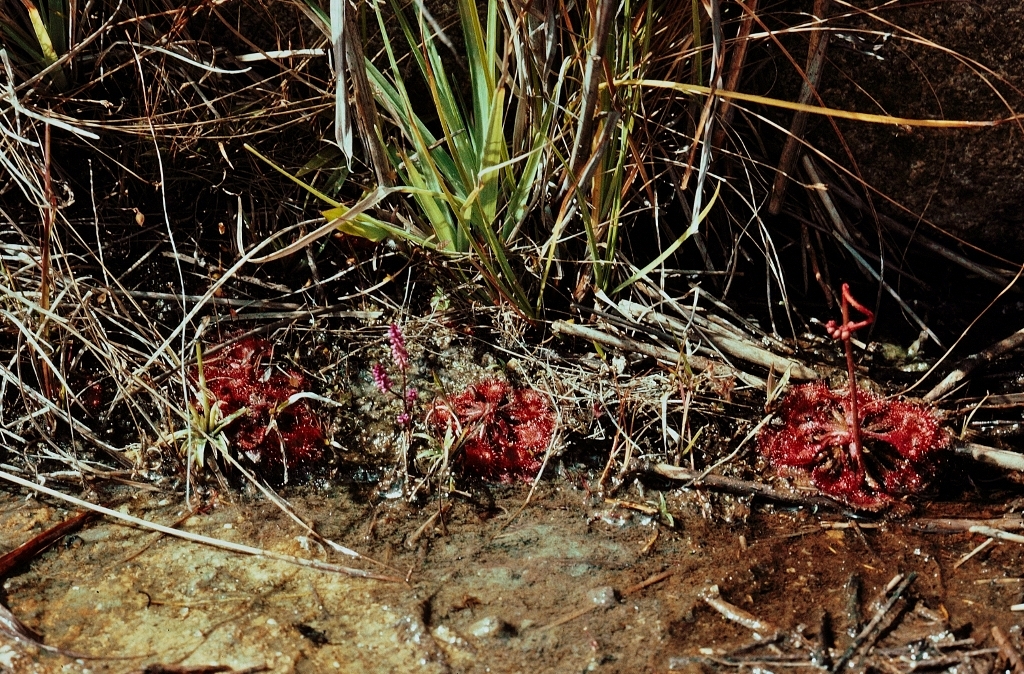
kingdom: Plantae
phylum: Tracheophyta
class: Magnoliopsida
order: Caryophyllales
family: Droseraceae
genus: Drosera
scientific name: Drosera burkeana
